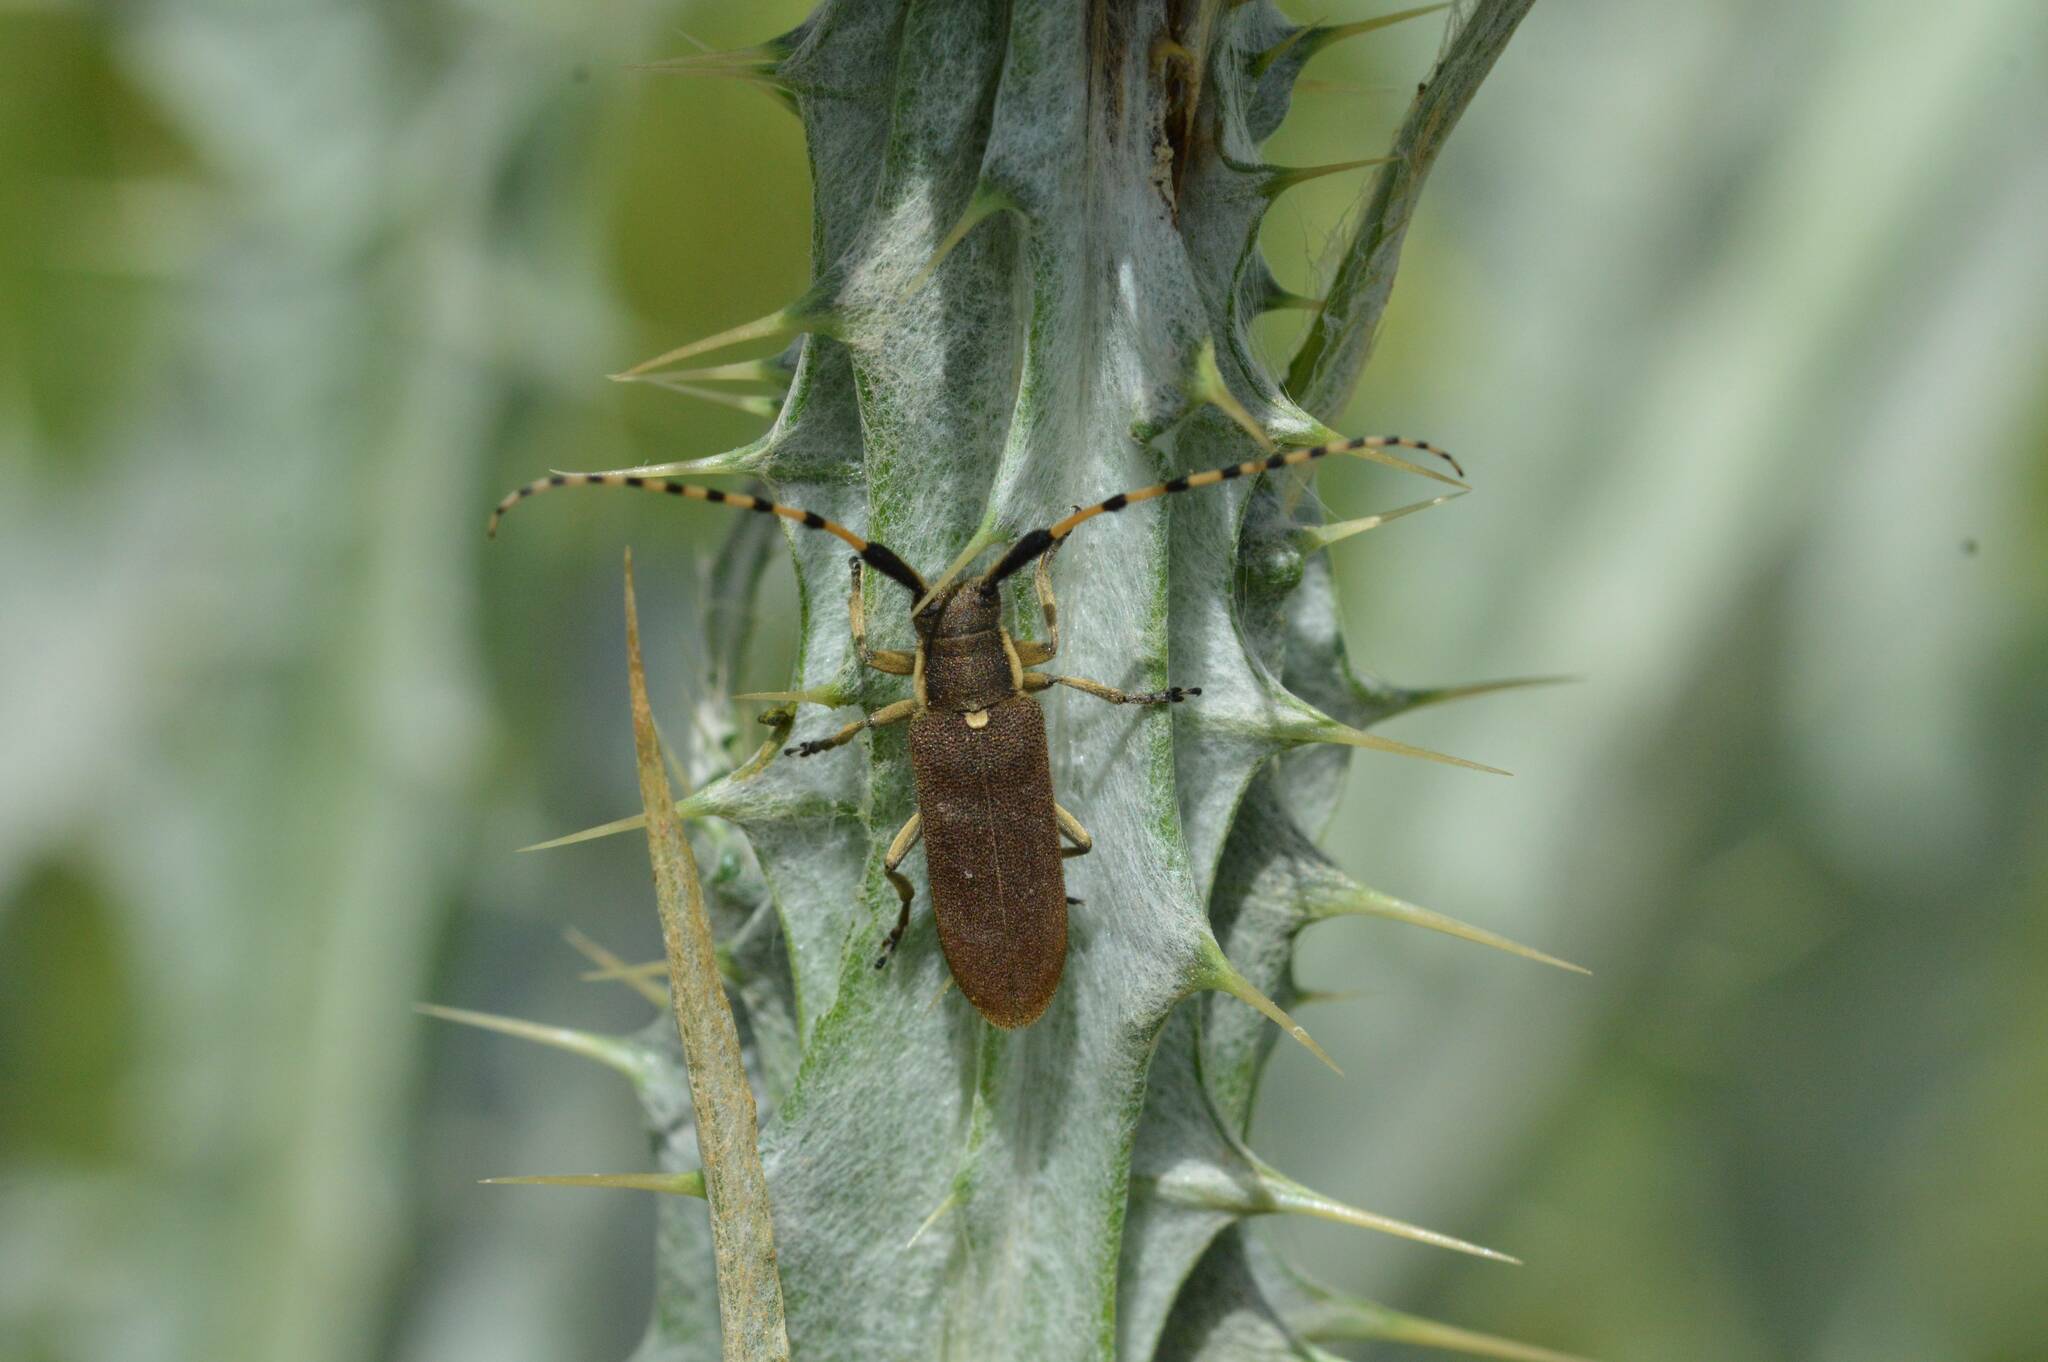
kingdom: Animalia
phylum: Arthropoda
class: Insecta
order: Coleoptera
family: Cerambycidae
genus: Agapanthia
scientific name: Agapanthia annularis
